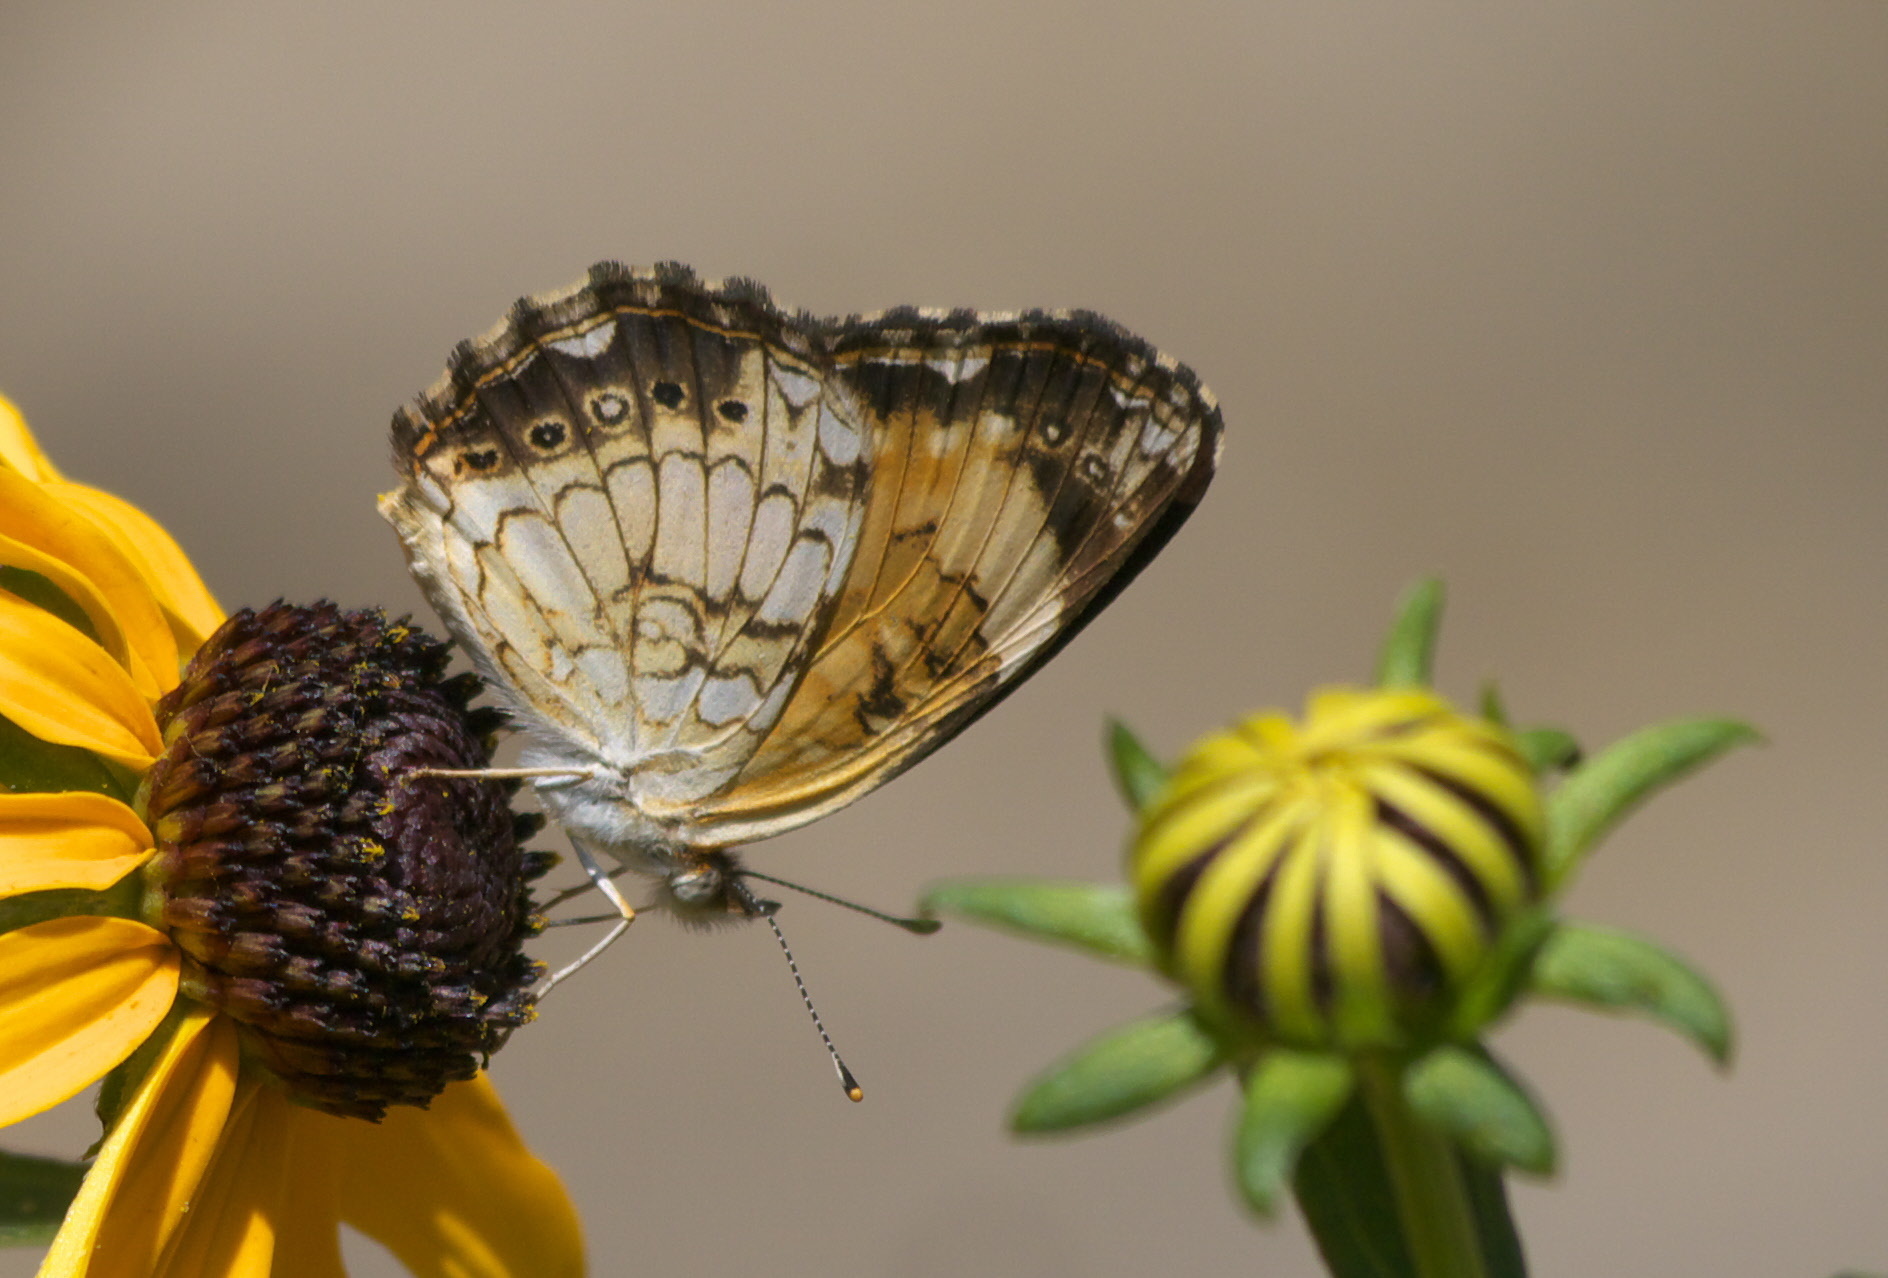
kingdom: Animalia
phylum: Arthropoda
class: Insecta
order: Lepidoptera
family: Nymphalidae
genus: Chlosyne
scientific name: Chlosyne nycteis
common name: Silvery checkerspot
